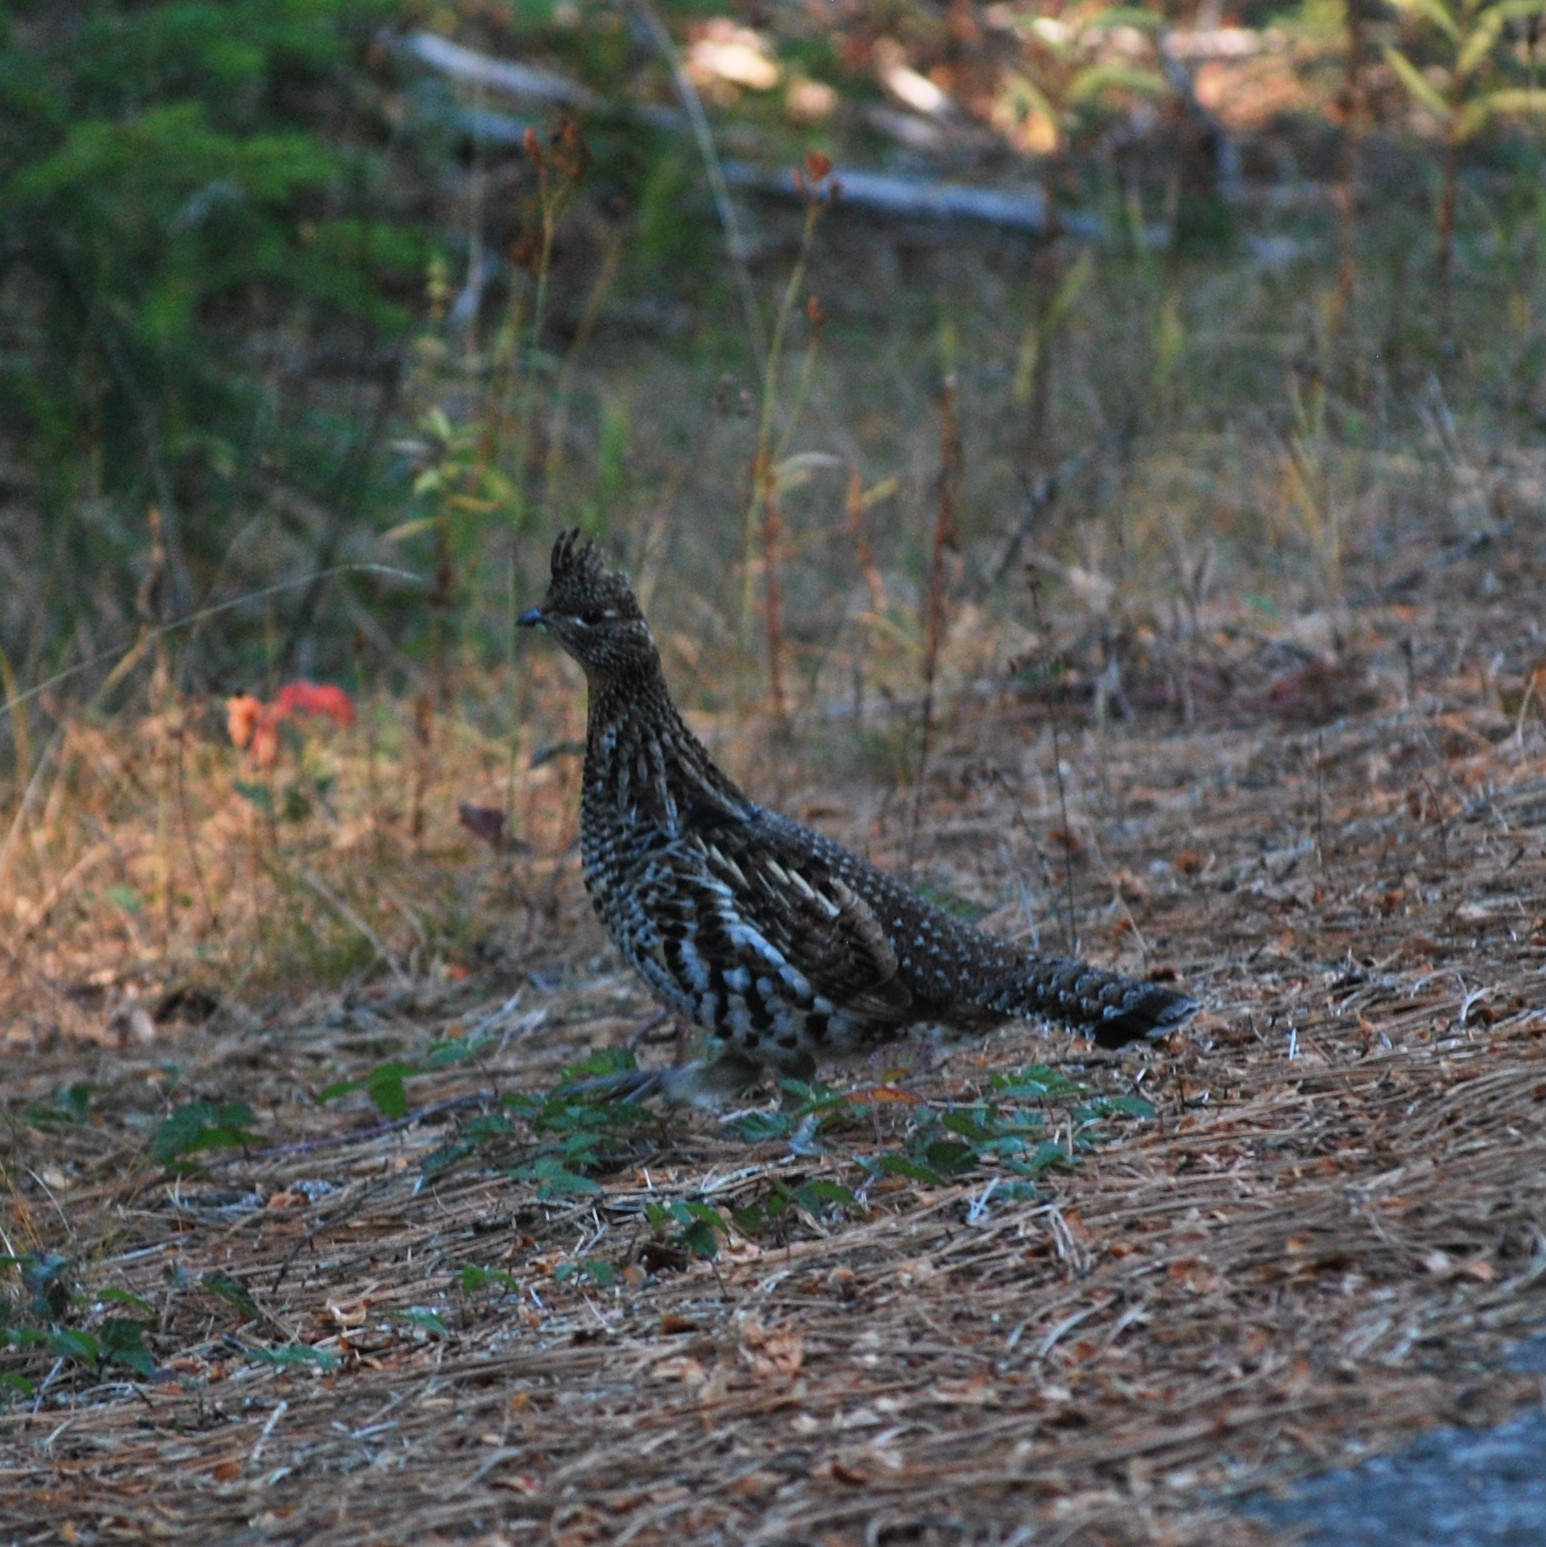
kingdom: Animalia
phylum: Chordata
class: Aves
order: Galliformes
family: Phasianidae
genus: Bonasa
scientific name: Bonasa umbellus
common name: Ruffed grouse
